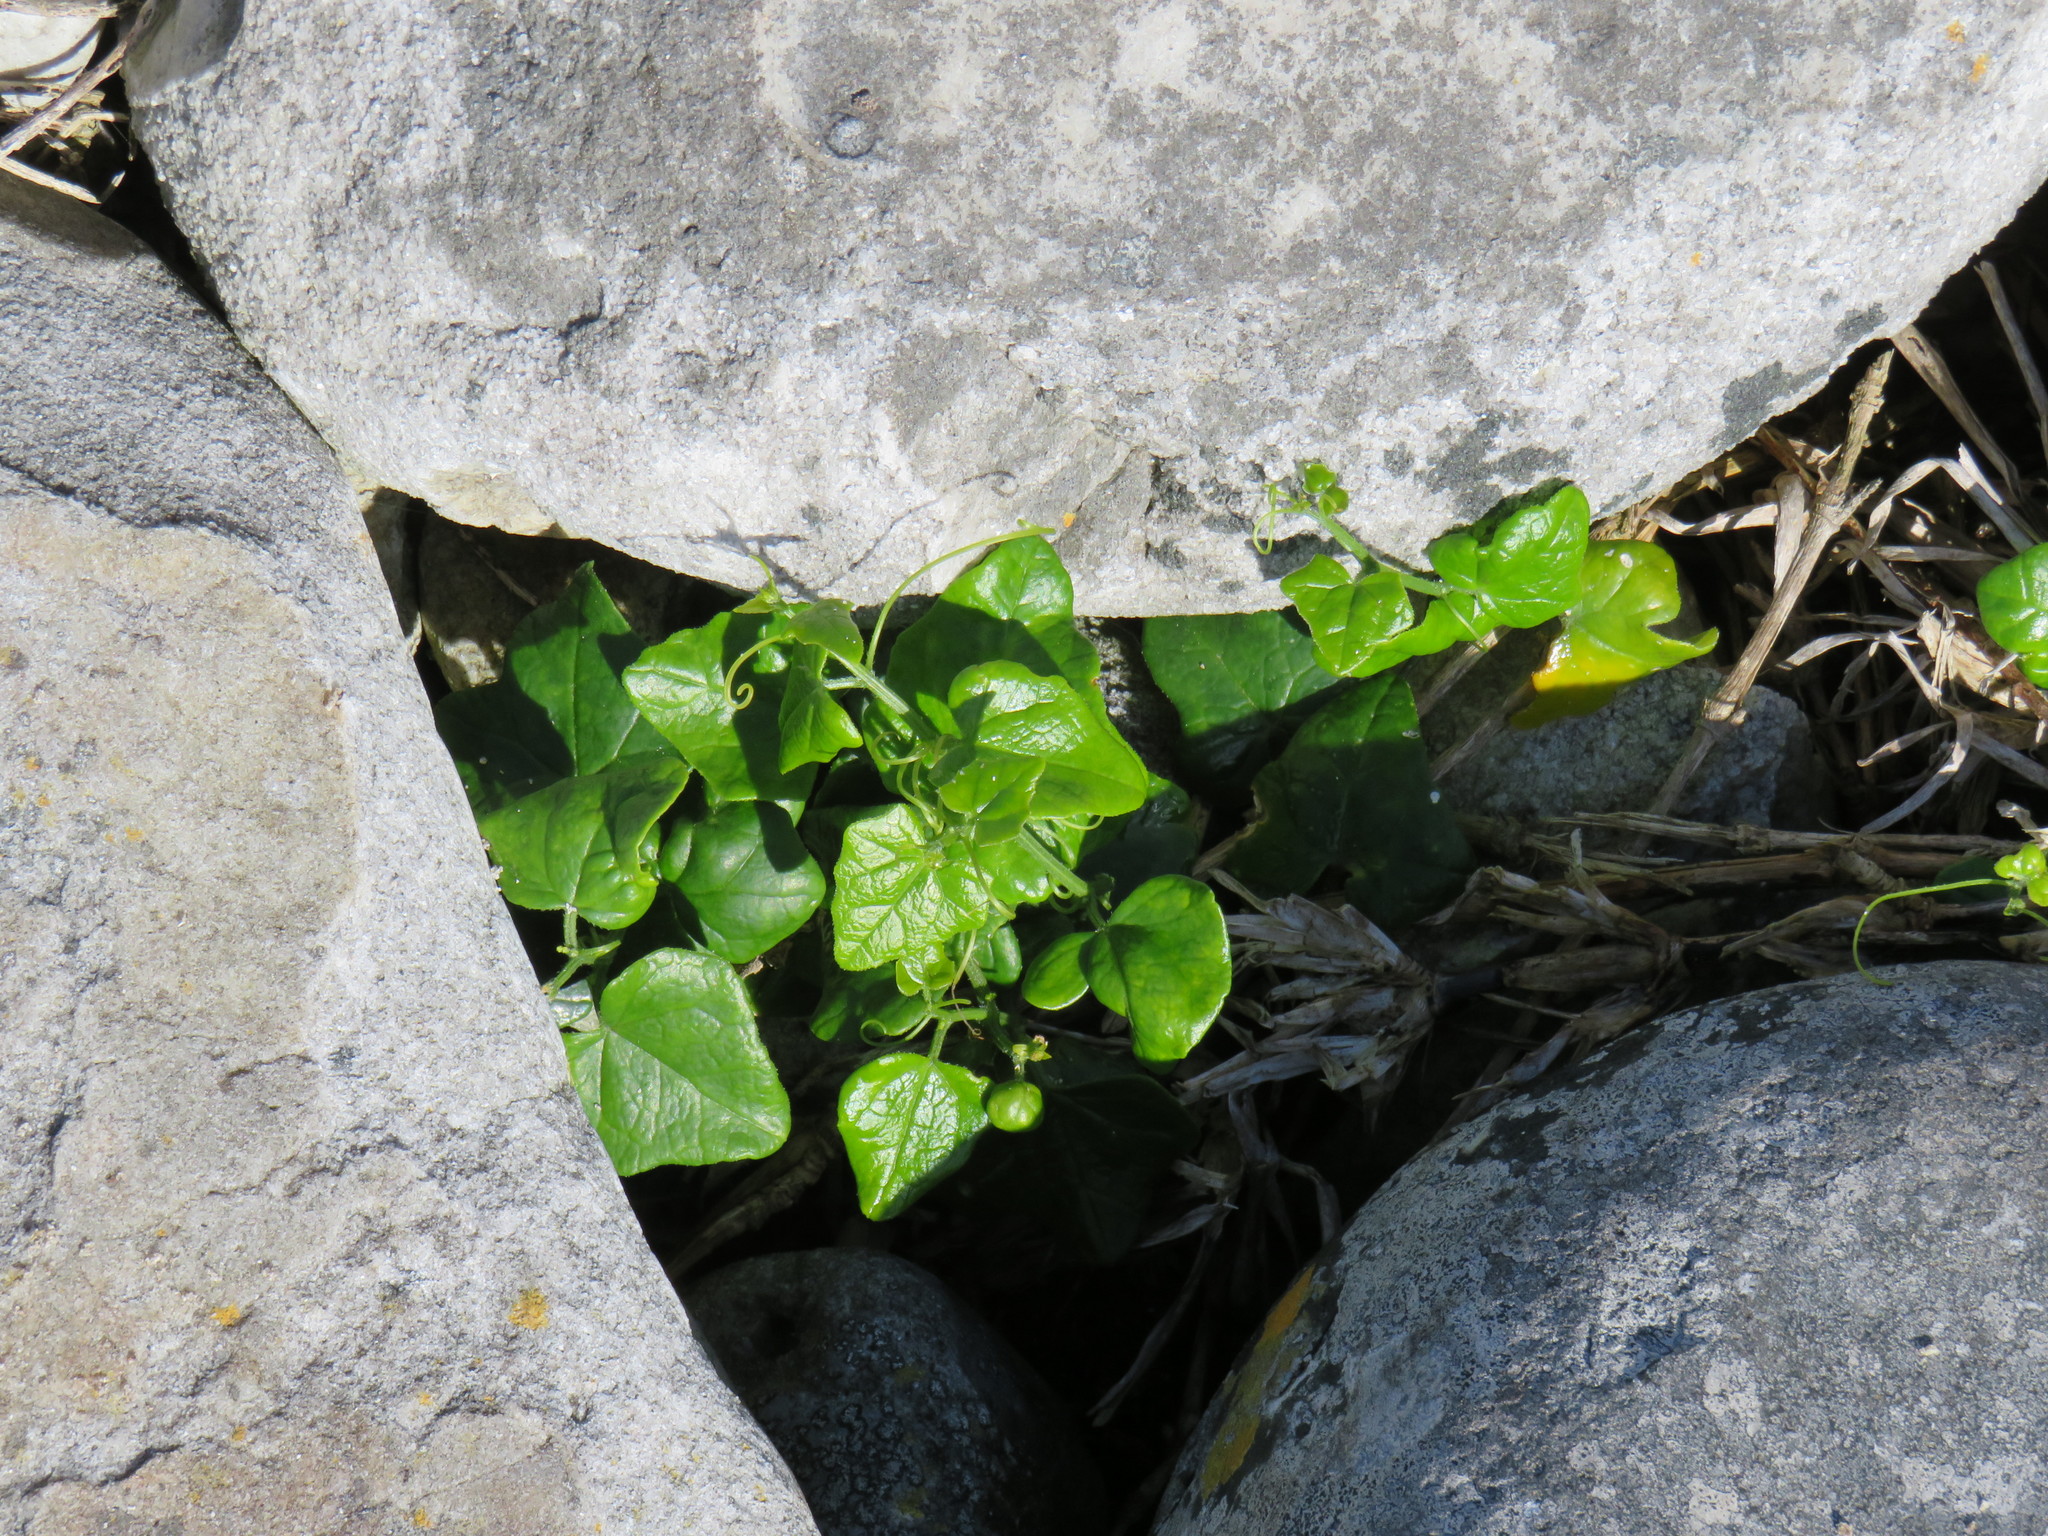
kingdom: Plantae
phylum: Tracheophyta
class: Magnoliopsida
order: Cucurbitales
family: Cucurbitaceae
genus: Kedrostis
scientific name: Kedrostis nana
